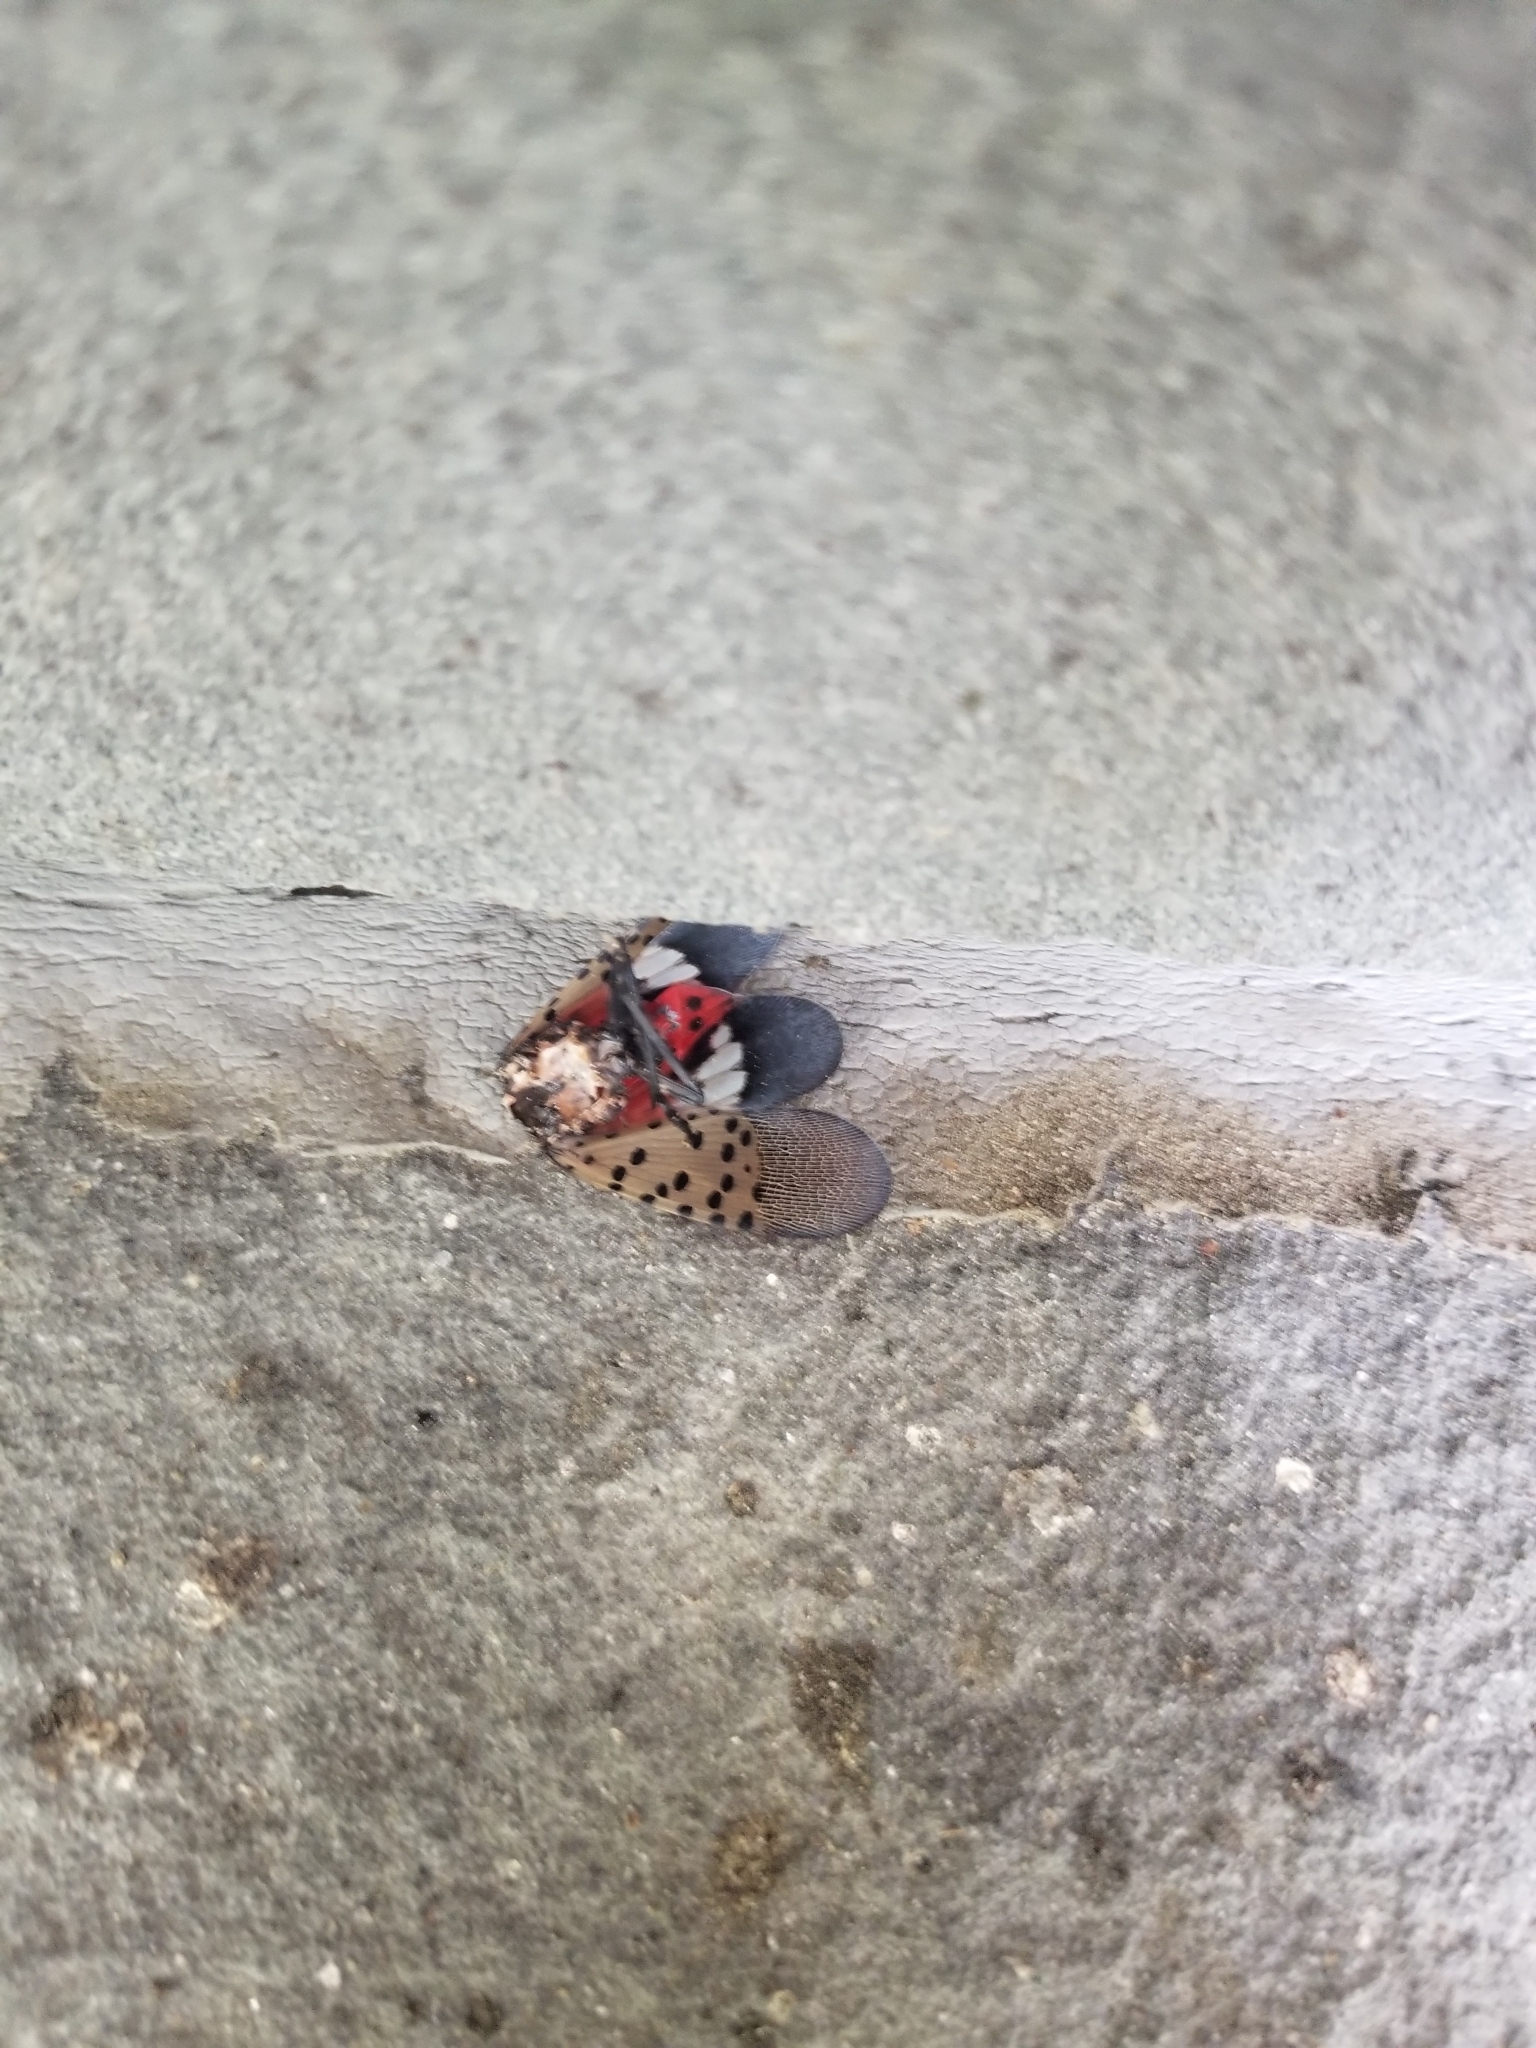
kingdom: Animalia
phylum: Arthropoda
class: Insecta
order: Hemiptera
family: Fulgoridae
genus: Lycorma
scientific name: Lycorma delicatula
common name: Spotted lanternfly
